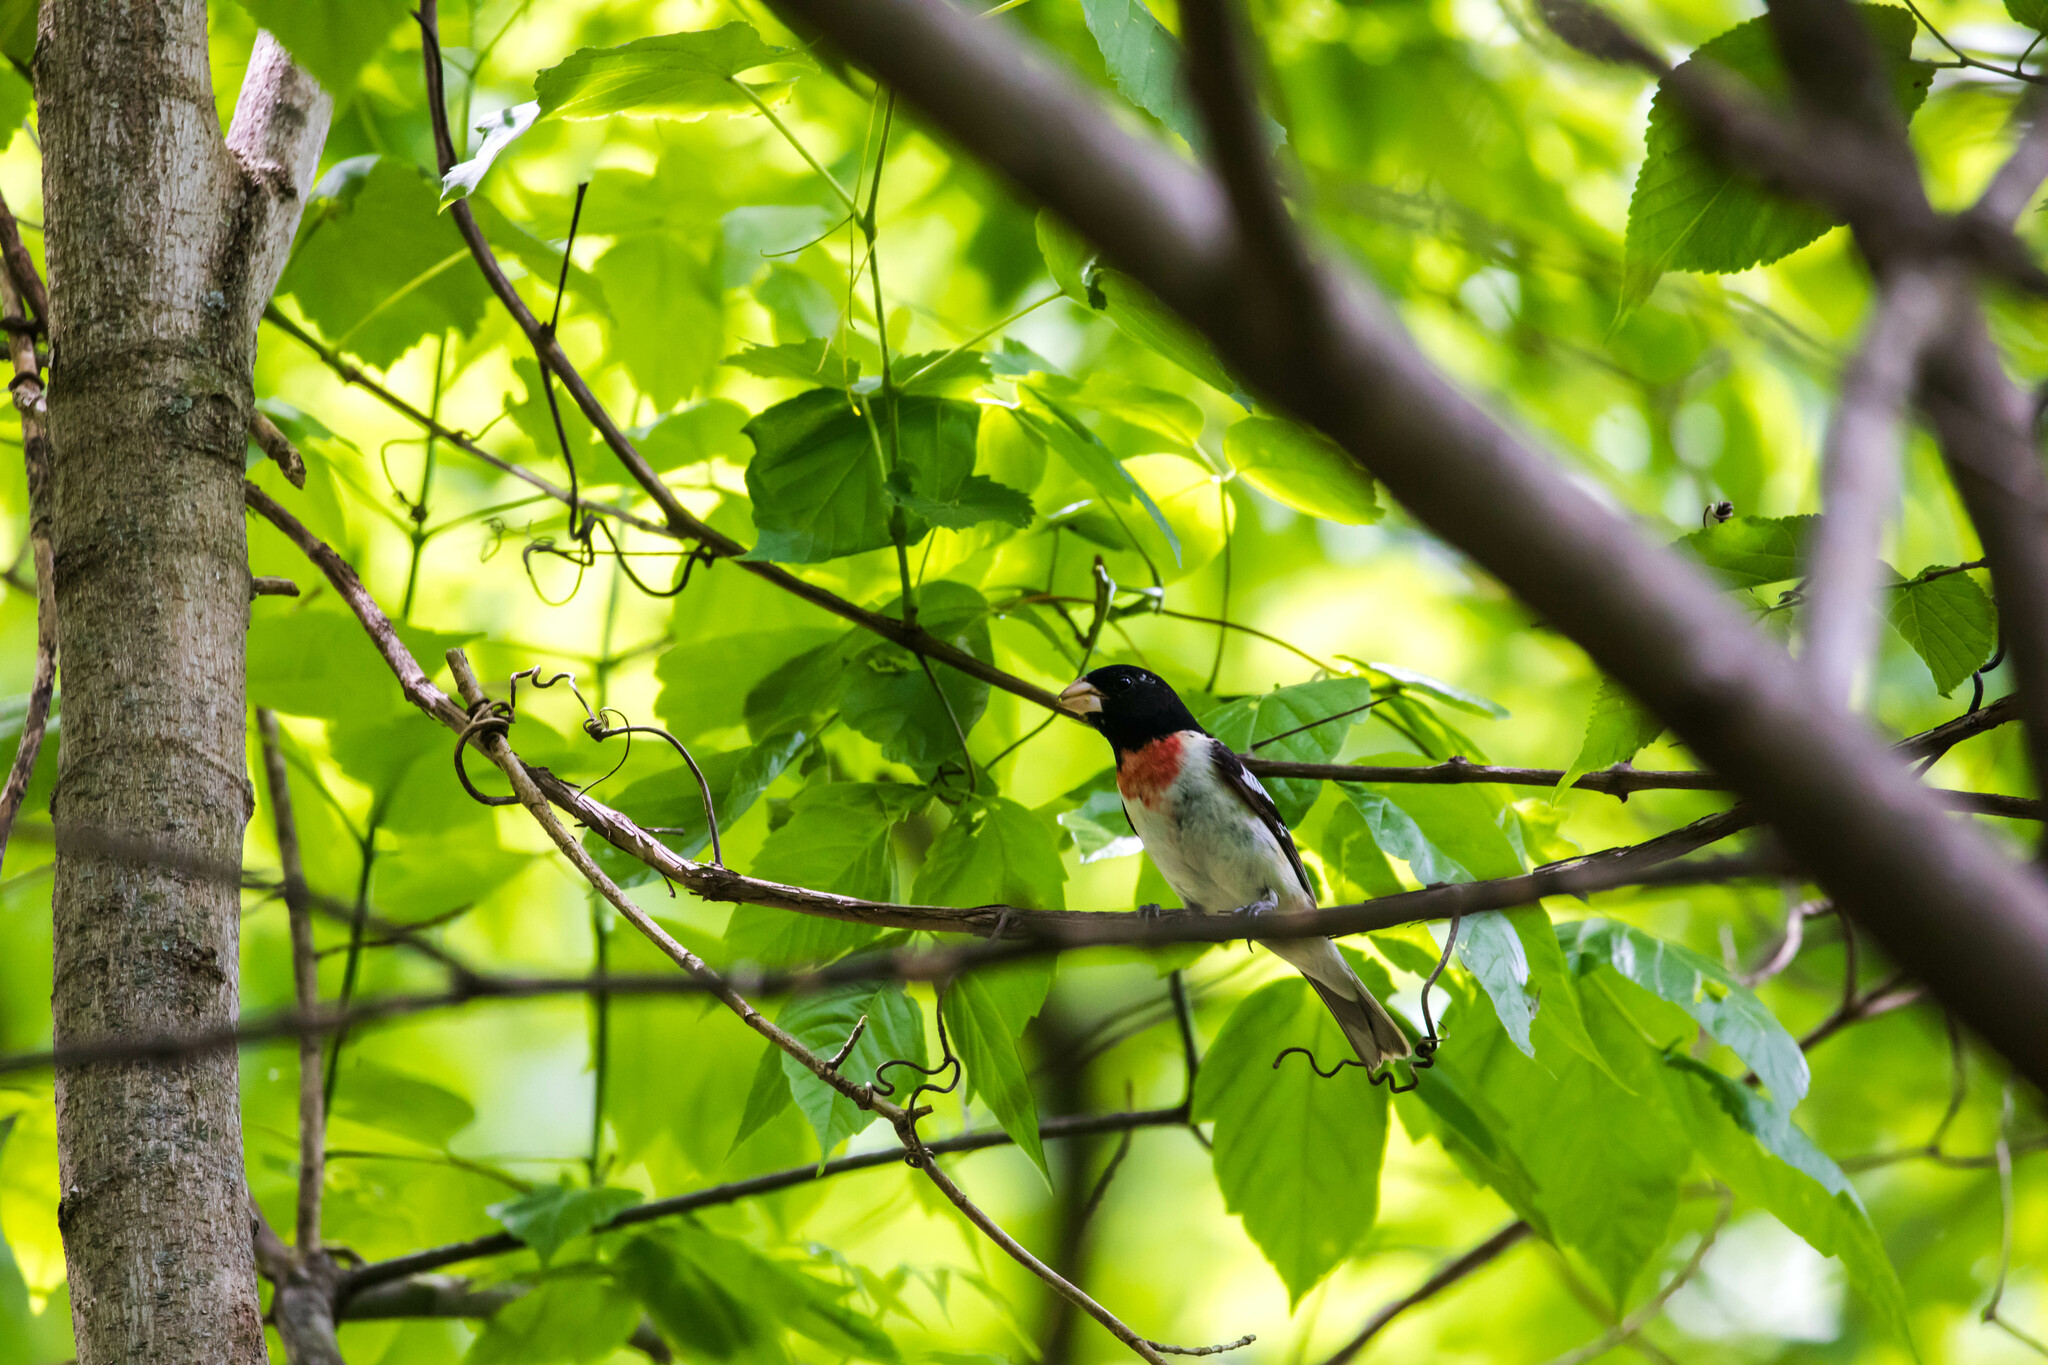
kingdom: Animalia
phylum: Chordata
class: Aves
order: Passeriformes
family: Cardinalidae
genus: Pheucticus
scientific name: Pheucticus ludovicianus
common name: Rose-breasted grosbeak
